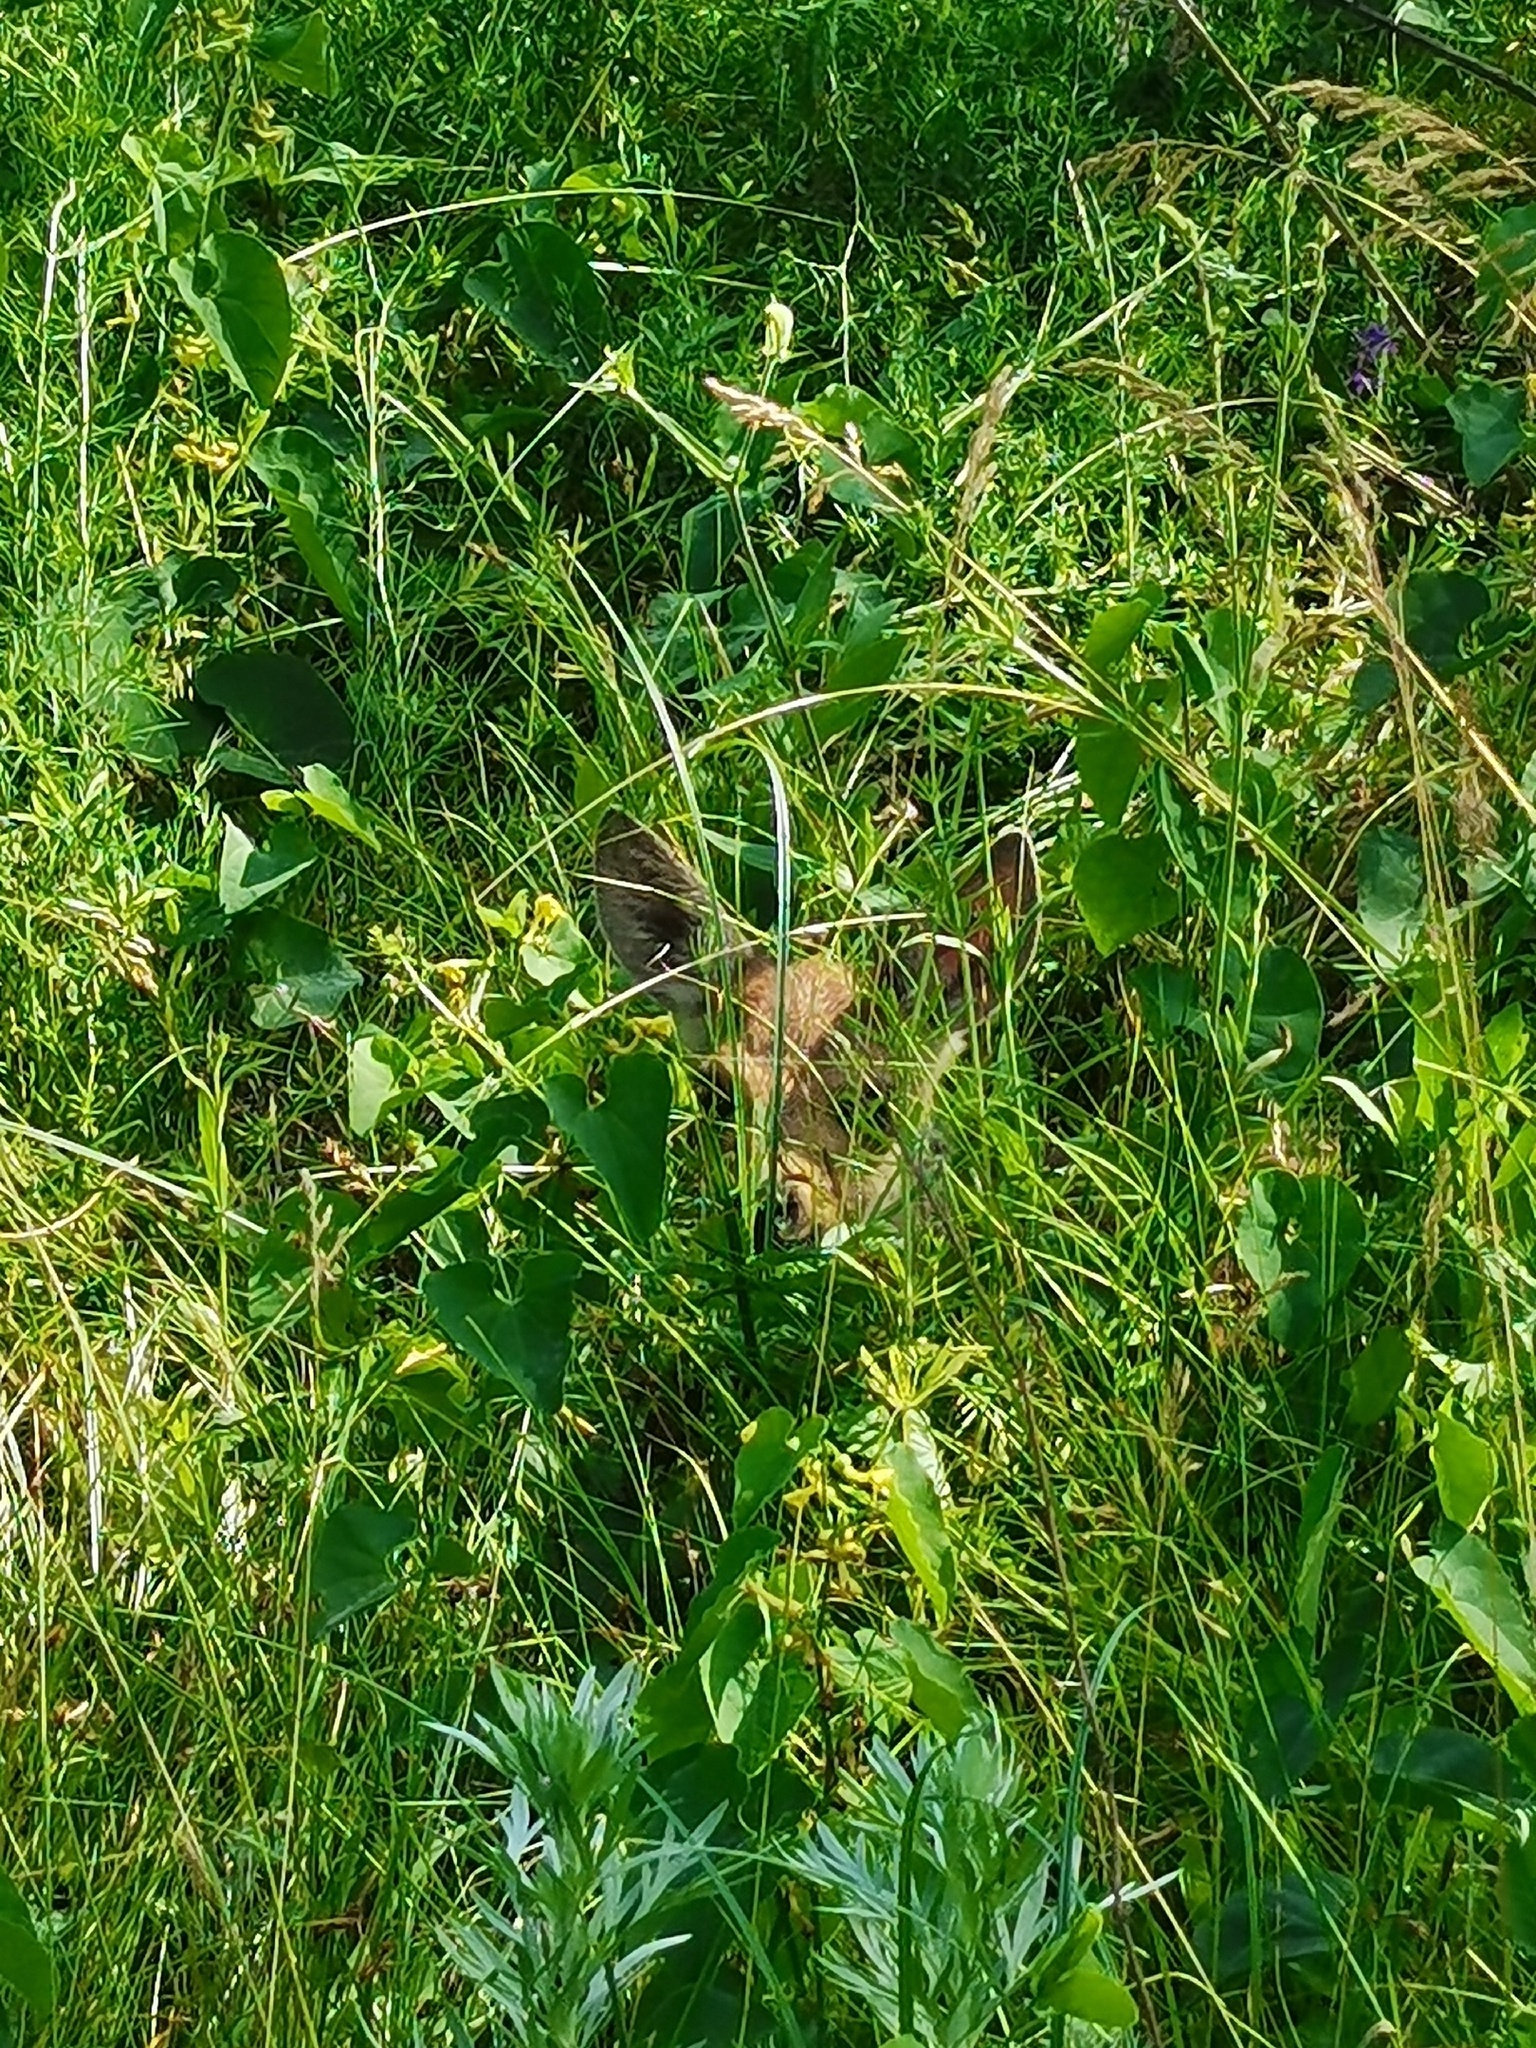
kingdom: Animalia
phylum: Chordata
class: Mammalia
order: Artiodactyla
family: Cervidae
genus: Capreolus
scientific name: Capreolus pygargus
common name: Siberian roe
